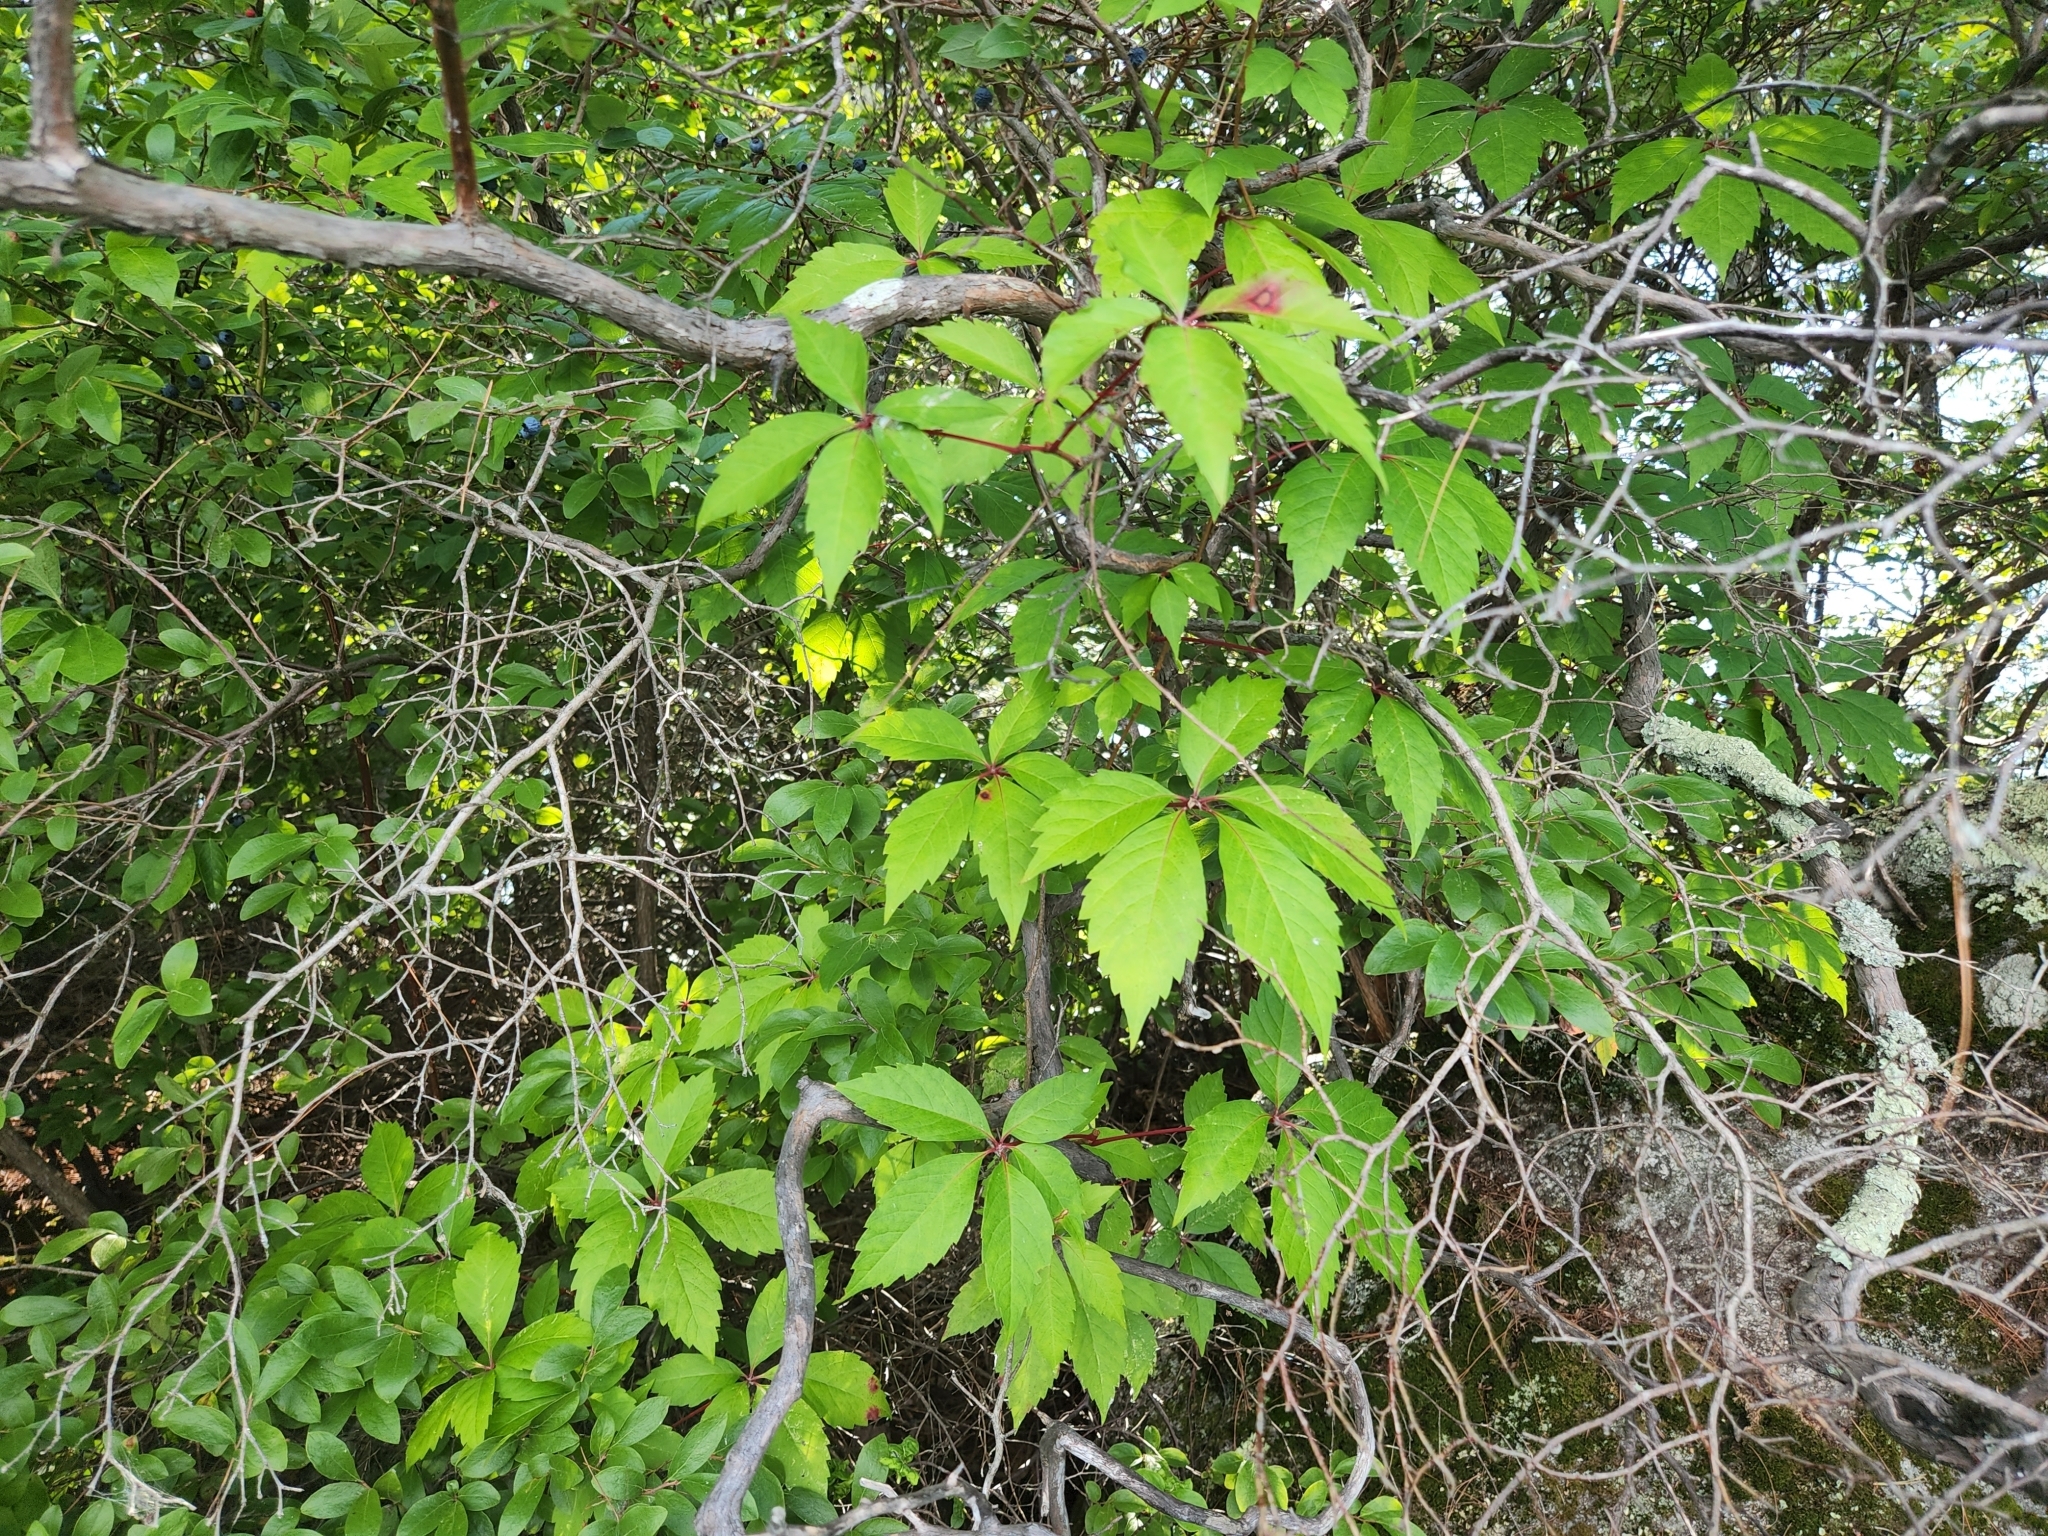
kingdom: Plantae
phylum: Tracheophyta
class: Magnoliopsida
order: Vitales
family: Vitaceae
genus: Parthenocissus
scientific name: Parthenocissus quinquefolia
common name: Virginia-creeper
